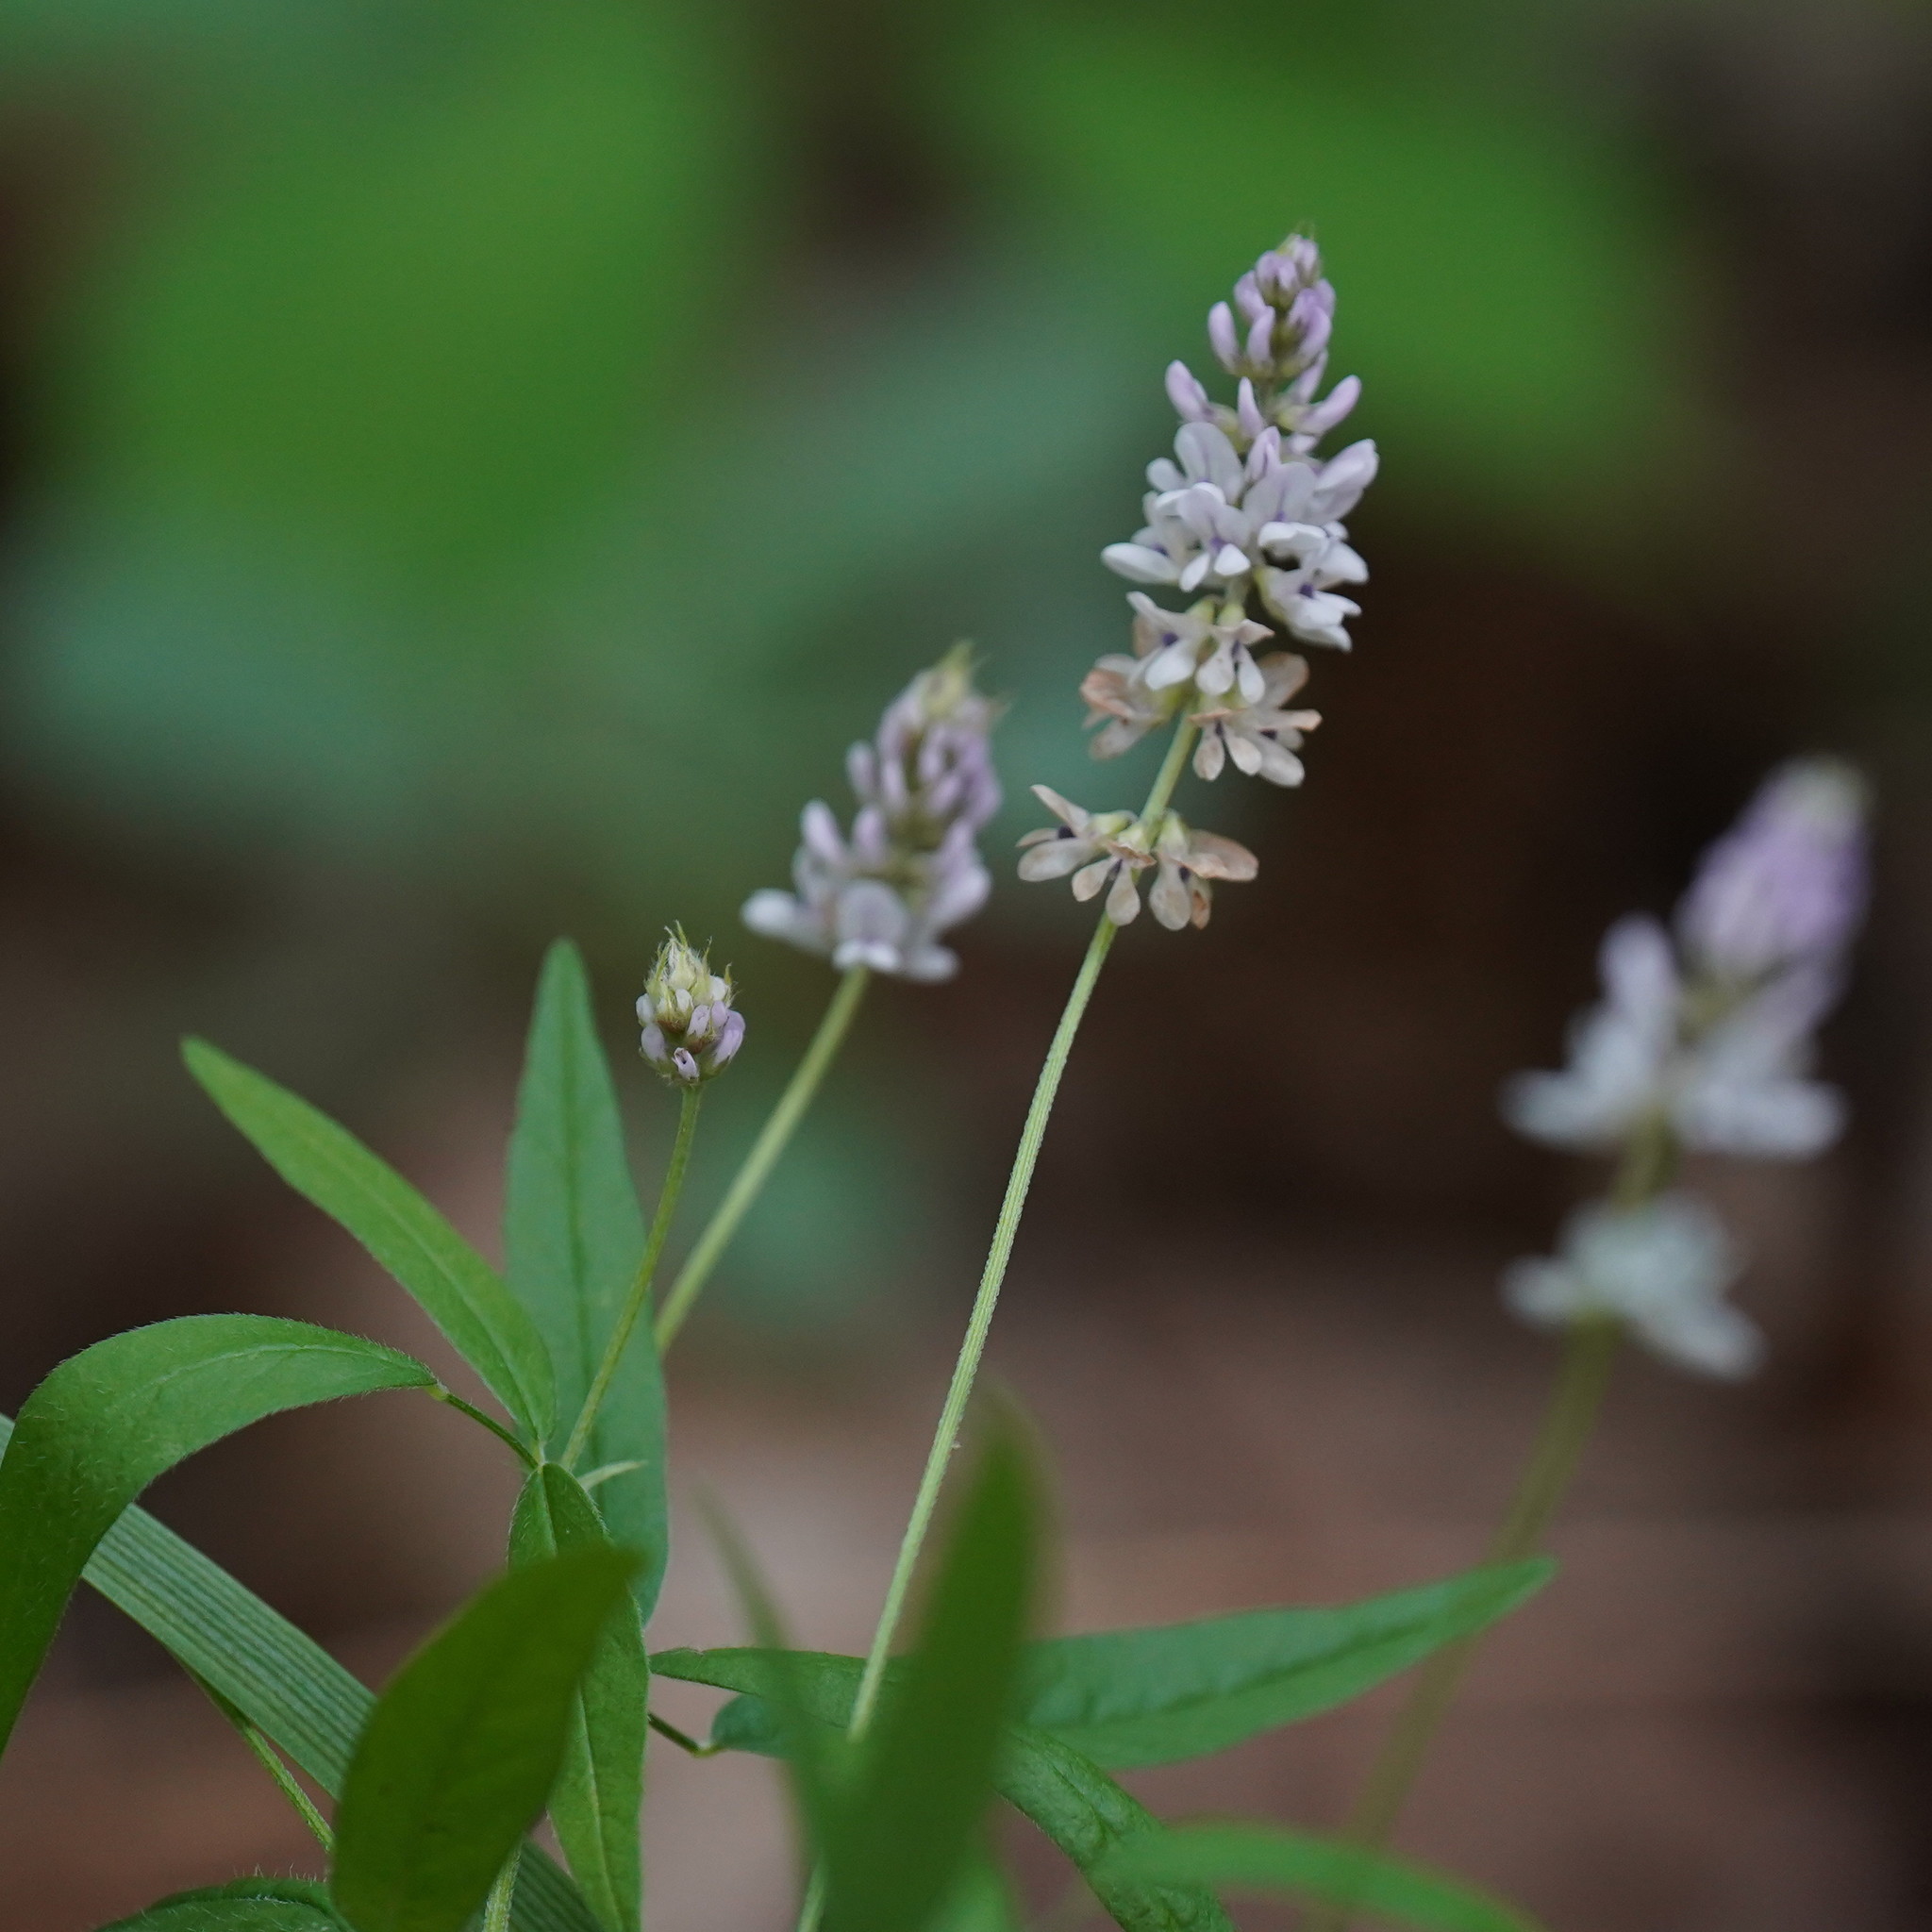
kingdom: Plantae
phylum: Tracheophyta
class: Magnoliopsida
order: Fabales
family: Fabaceae
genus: Orbexilum
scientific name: Orbexilum pedunculatum
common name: Sampson's snakeroot
